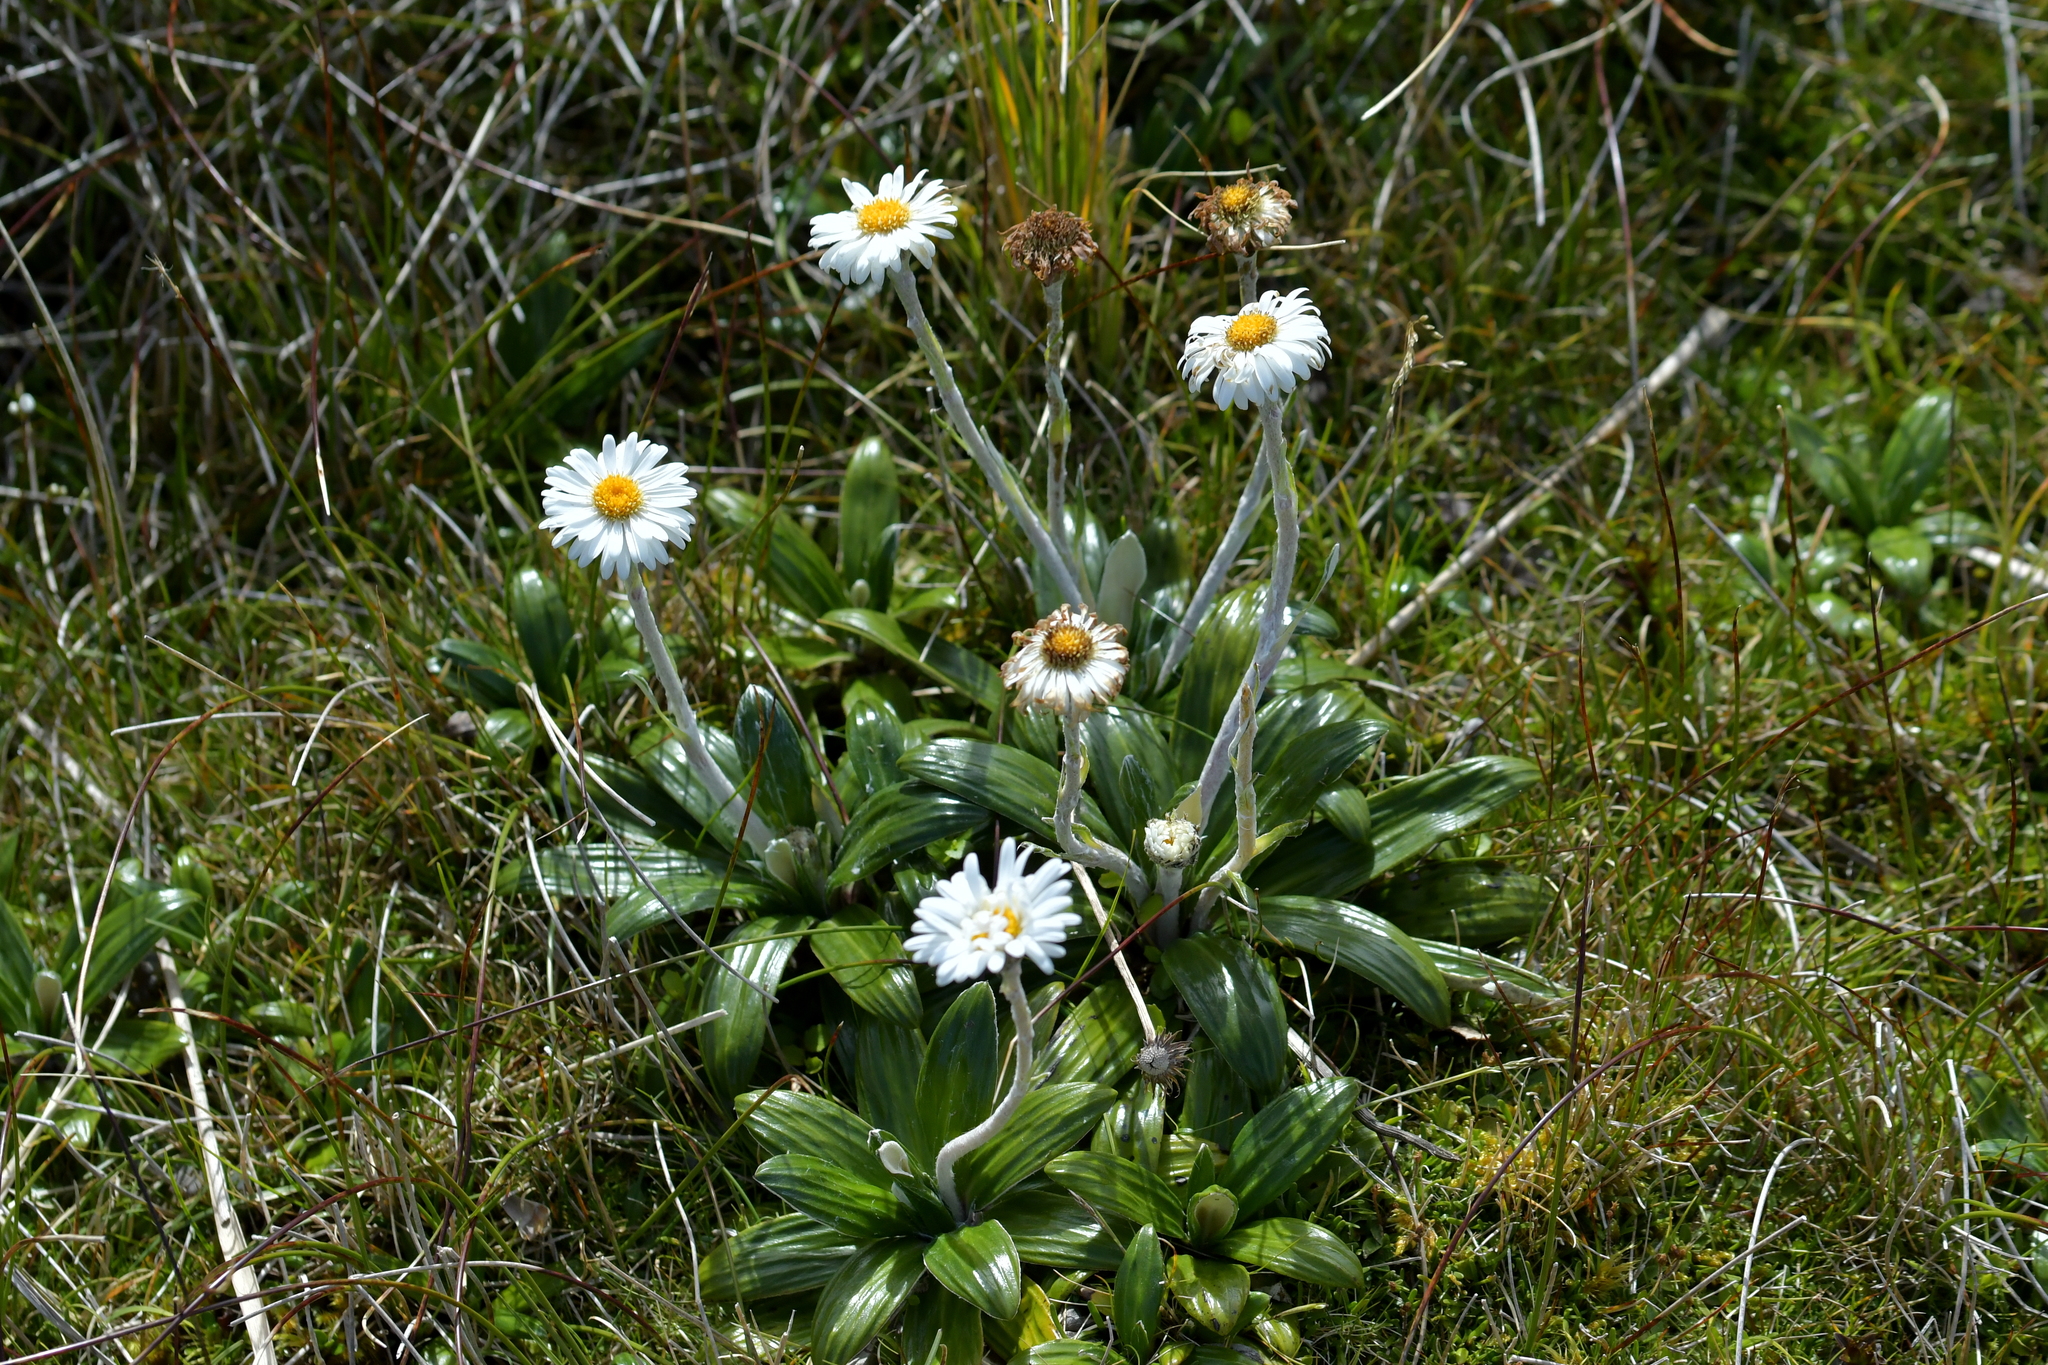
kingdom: Plantae
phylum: Tracheophyta
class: Magnoliopsida
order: Asterales
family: Asteraceae
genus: Celmisia
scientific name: Celmisia spectabilis
